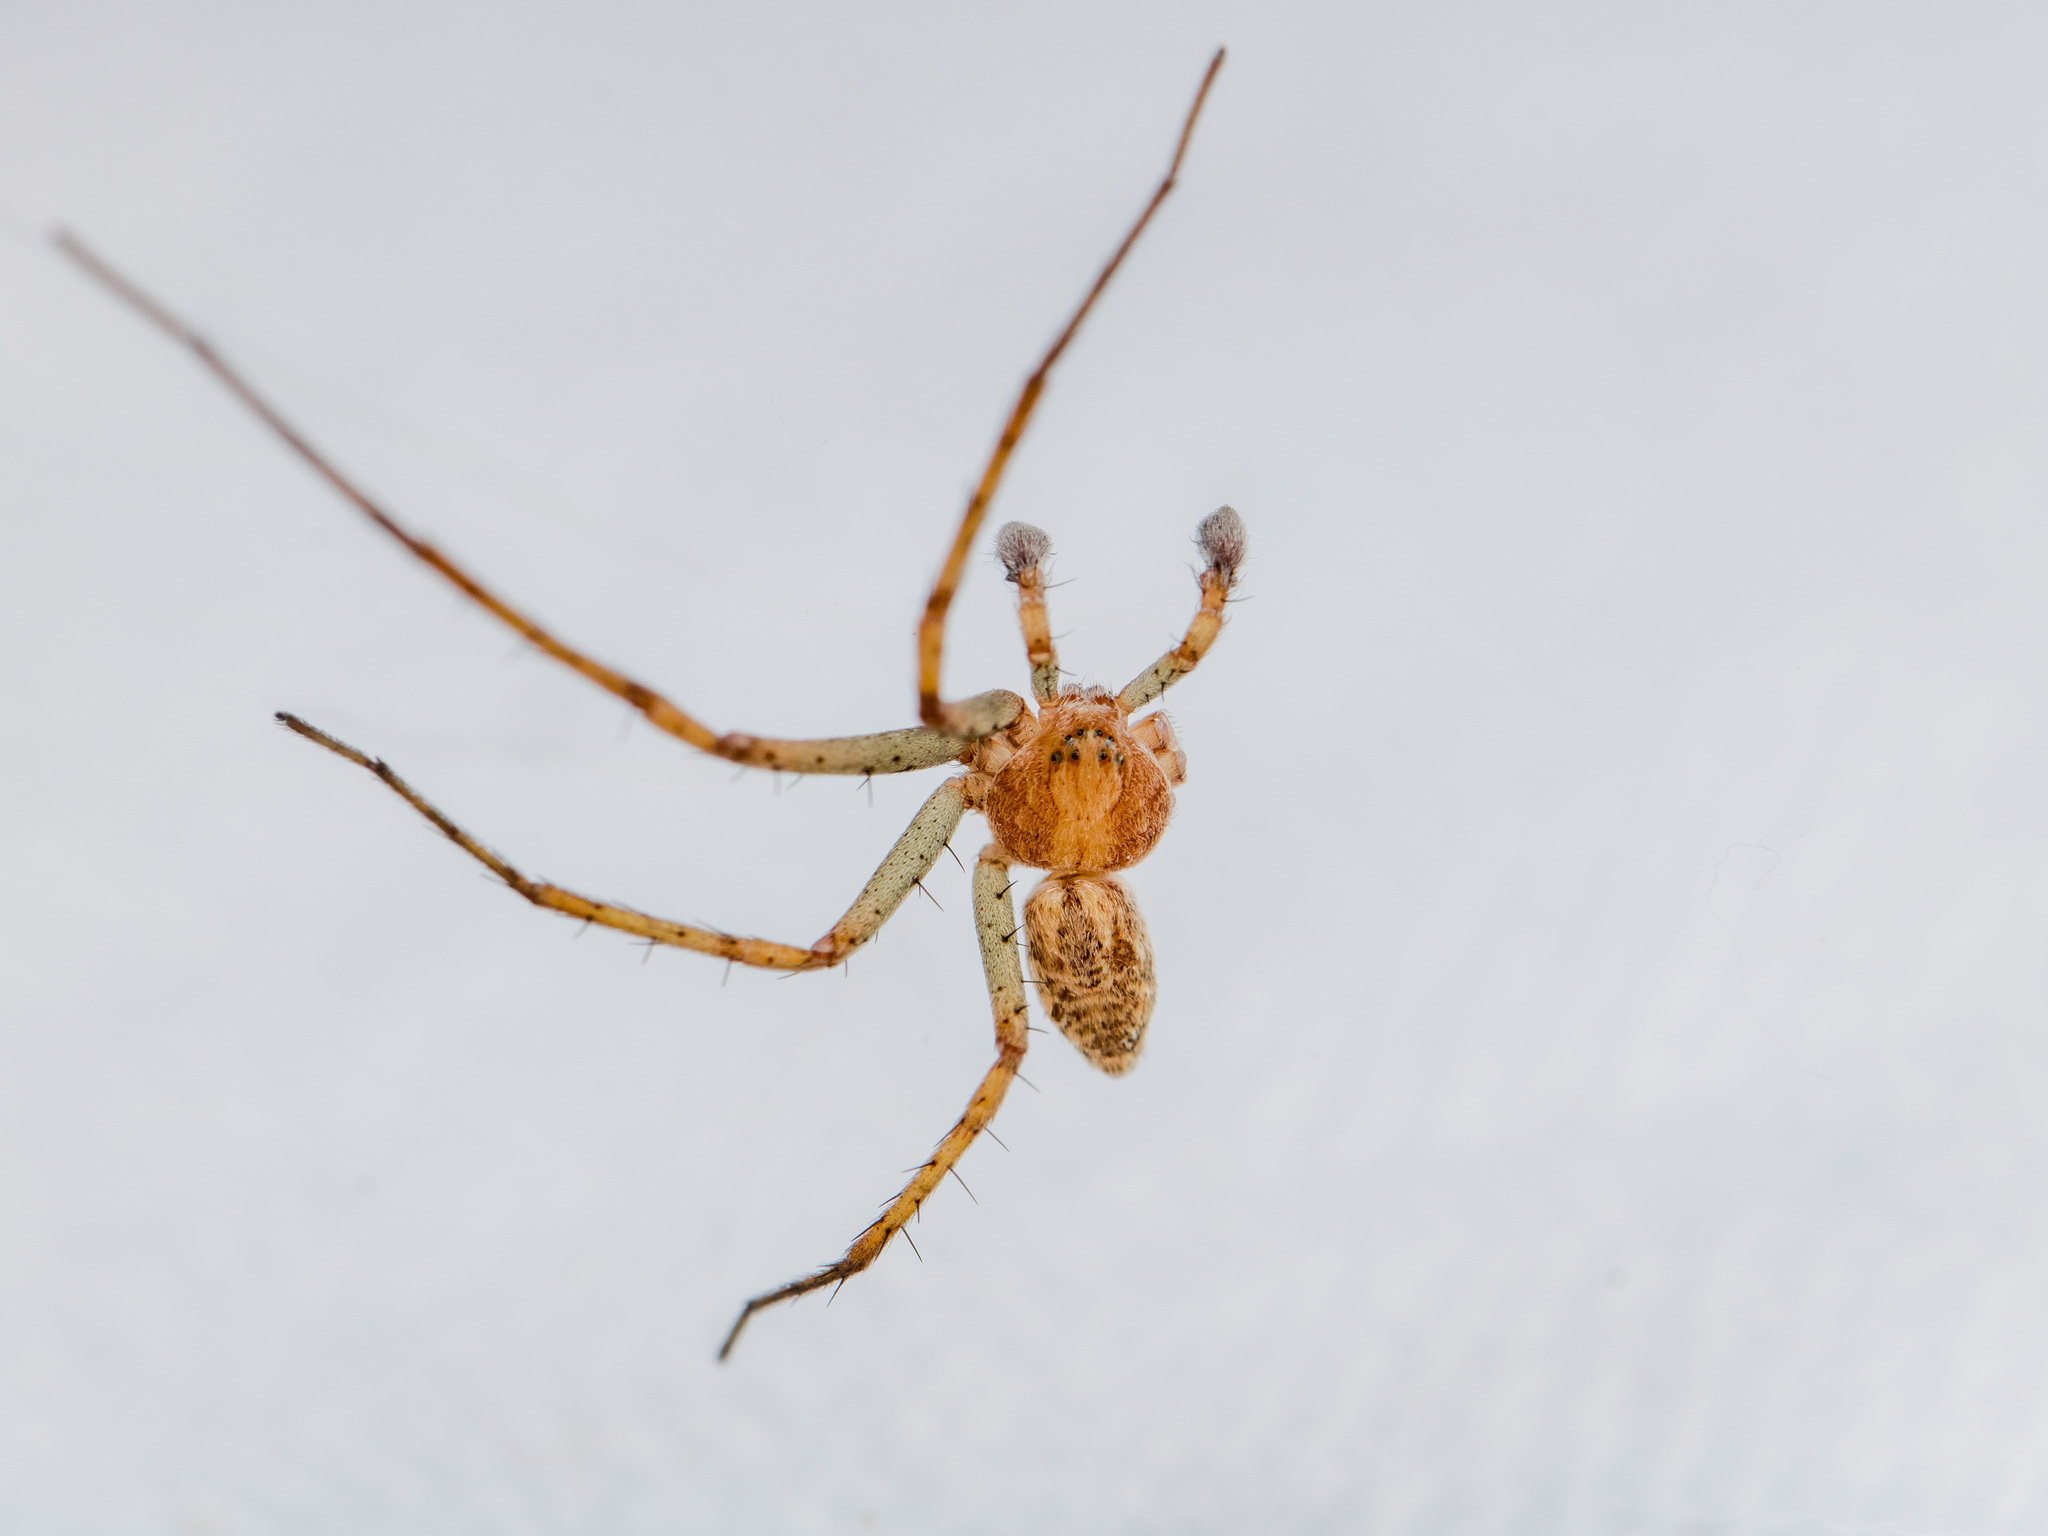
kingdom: Animalia
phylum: Arthropoda
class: Arachnida
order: Araneae
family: Philodromidae
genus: Philodromus
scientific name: Philodromus longipalpis
